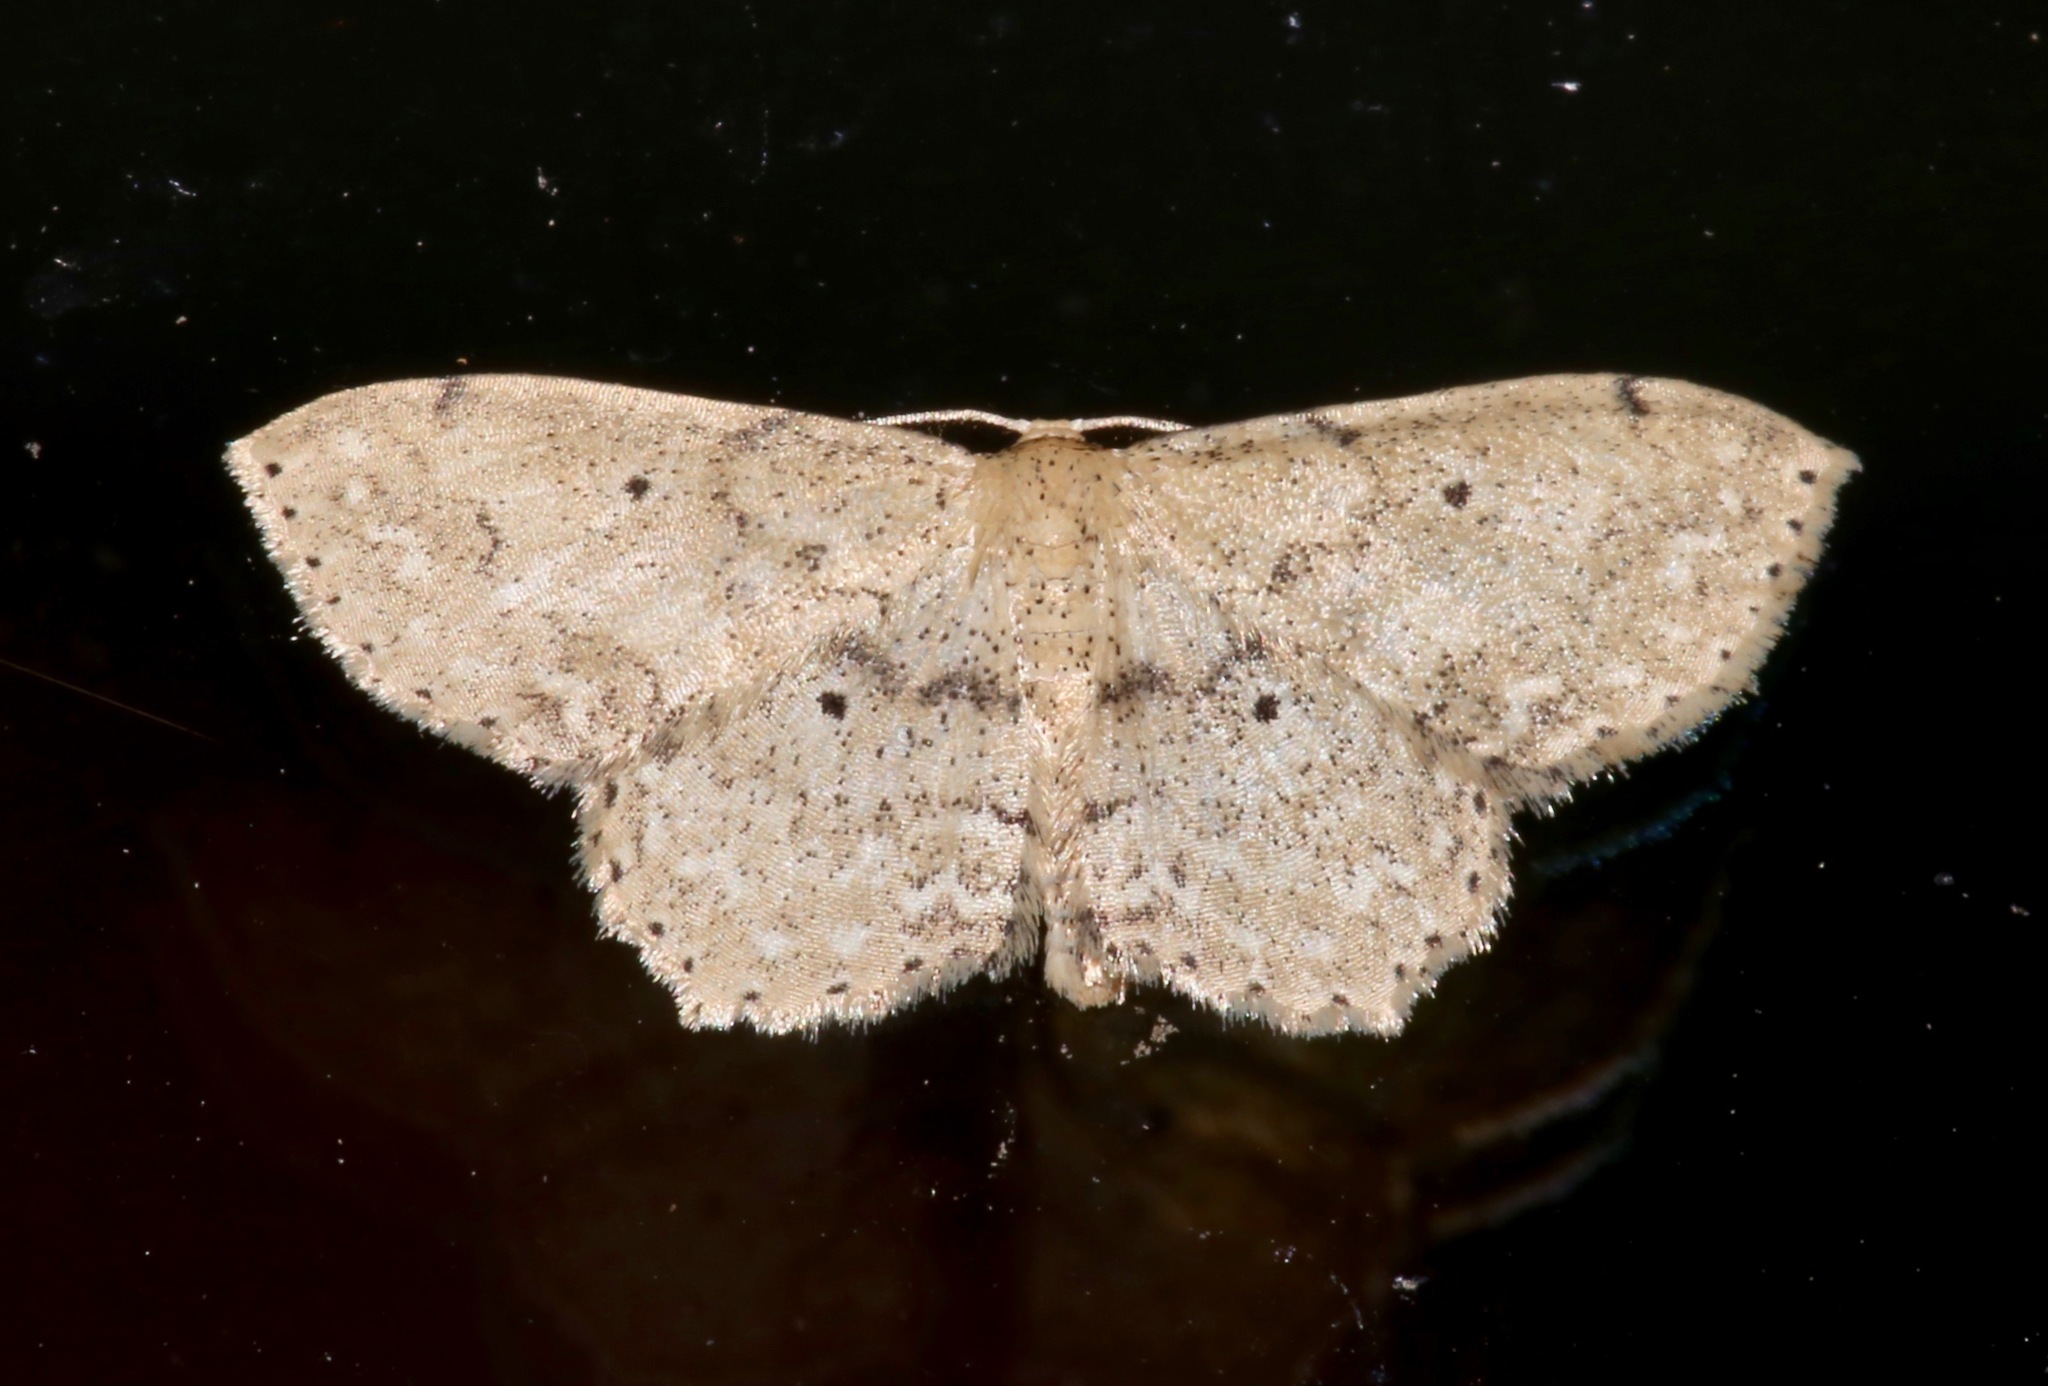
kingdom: Animalia
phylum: Arthropoda
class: Insecta
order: Lepidoptera
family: Geometridae
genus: Scopula
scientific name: Scopula compensata
